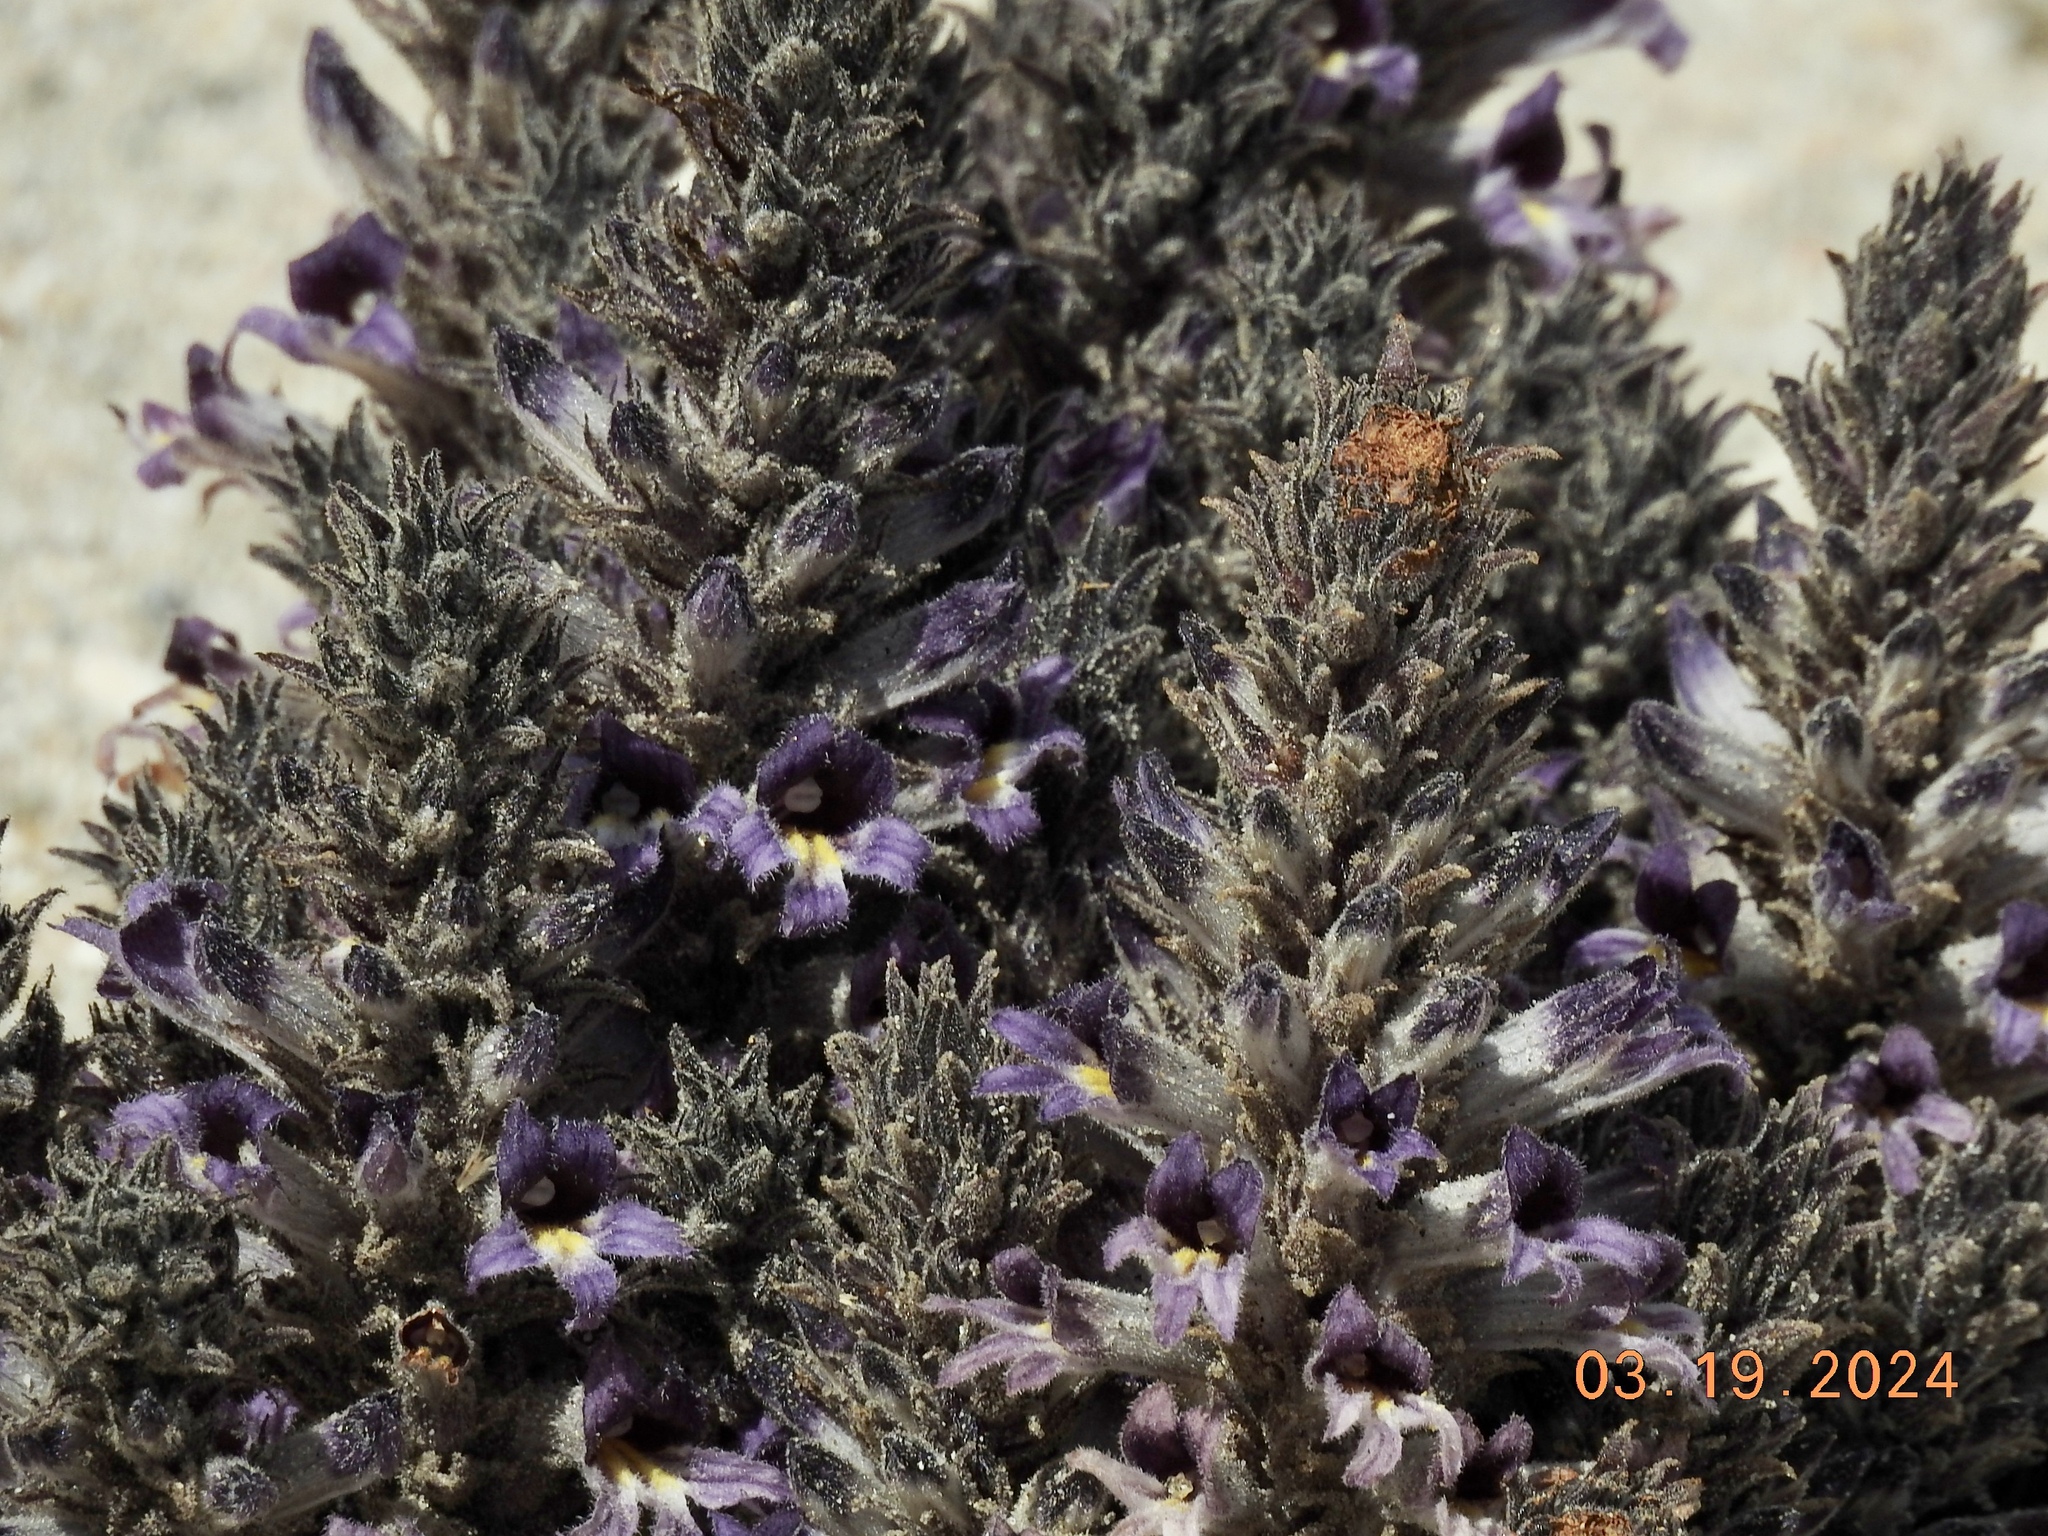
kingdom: Plantae
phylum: Tracheophyta
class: Magnoliopsida
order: Lamiales
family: Orobanchaceae
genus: Aphyllon
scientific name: Aphyllon cooperi
